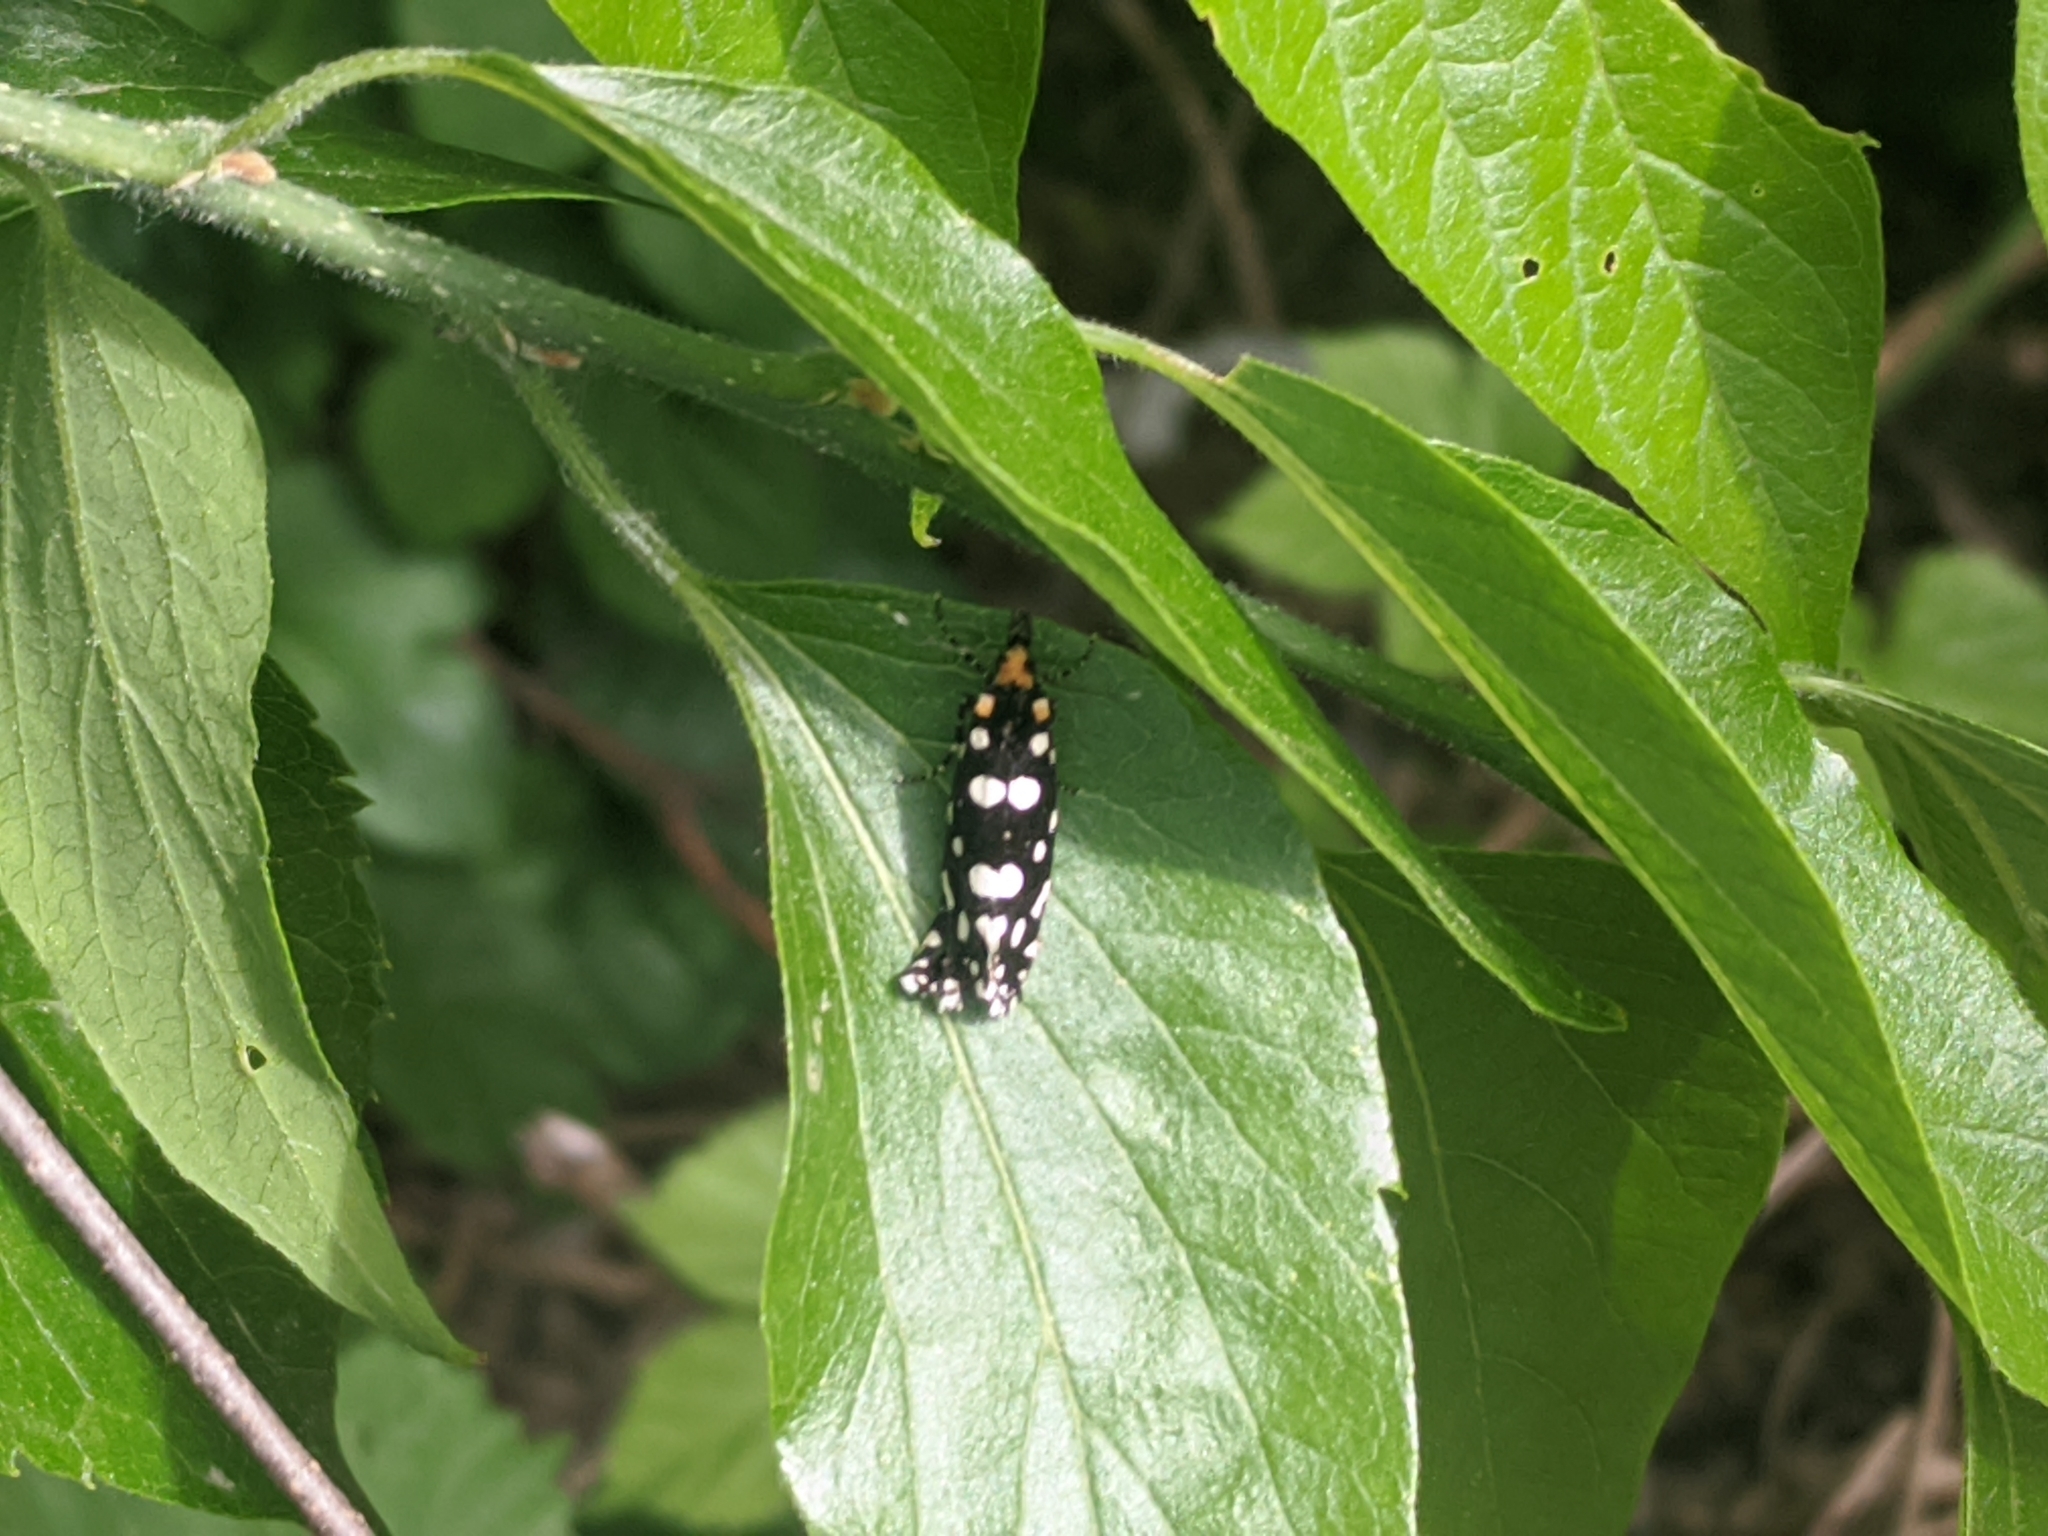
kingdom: Animalia
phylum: Arthropoda
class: Insecta
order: Lepidoptera
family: Tineidae
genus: Euplocamus
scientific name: Euplocamus anthracinalis
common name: Black clothes
